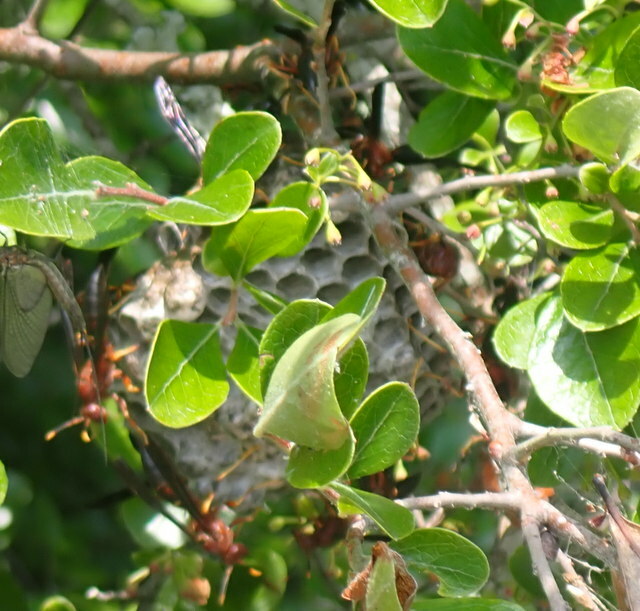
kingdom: Animalia
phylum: Arthropoda
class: Insecta
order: Hymenoptera
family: Eumenidae
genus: Polistes
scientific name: Polistes annularis
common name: Ringed paper wasp
